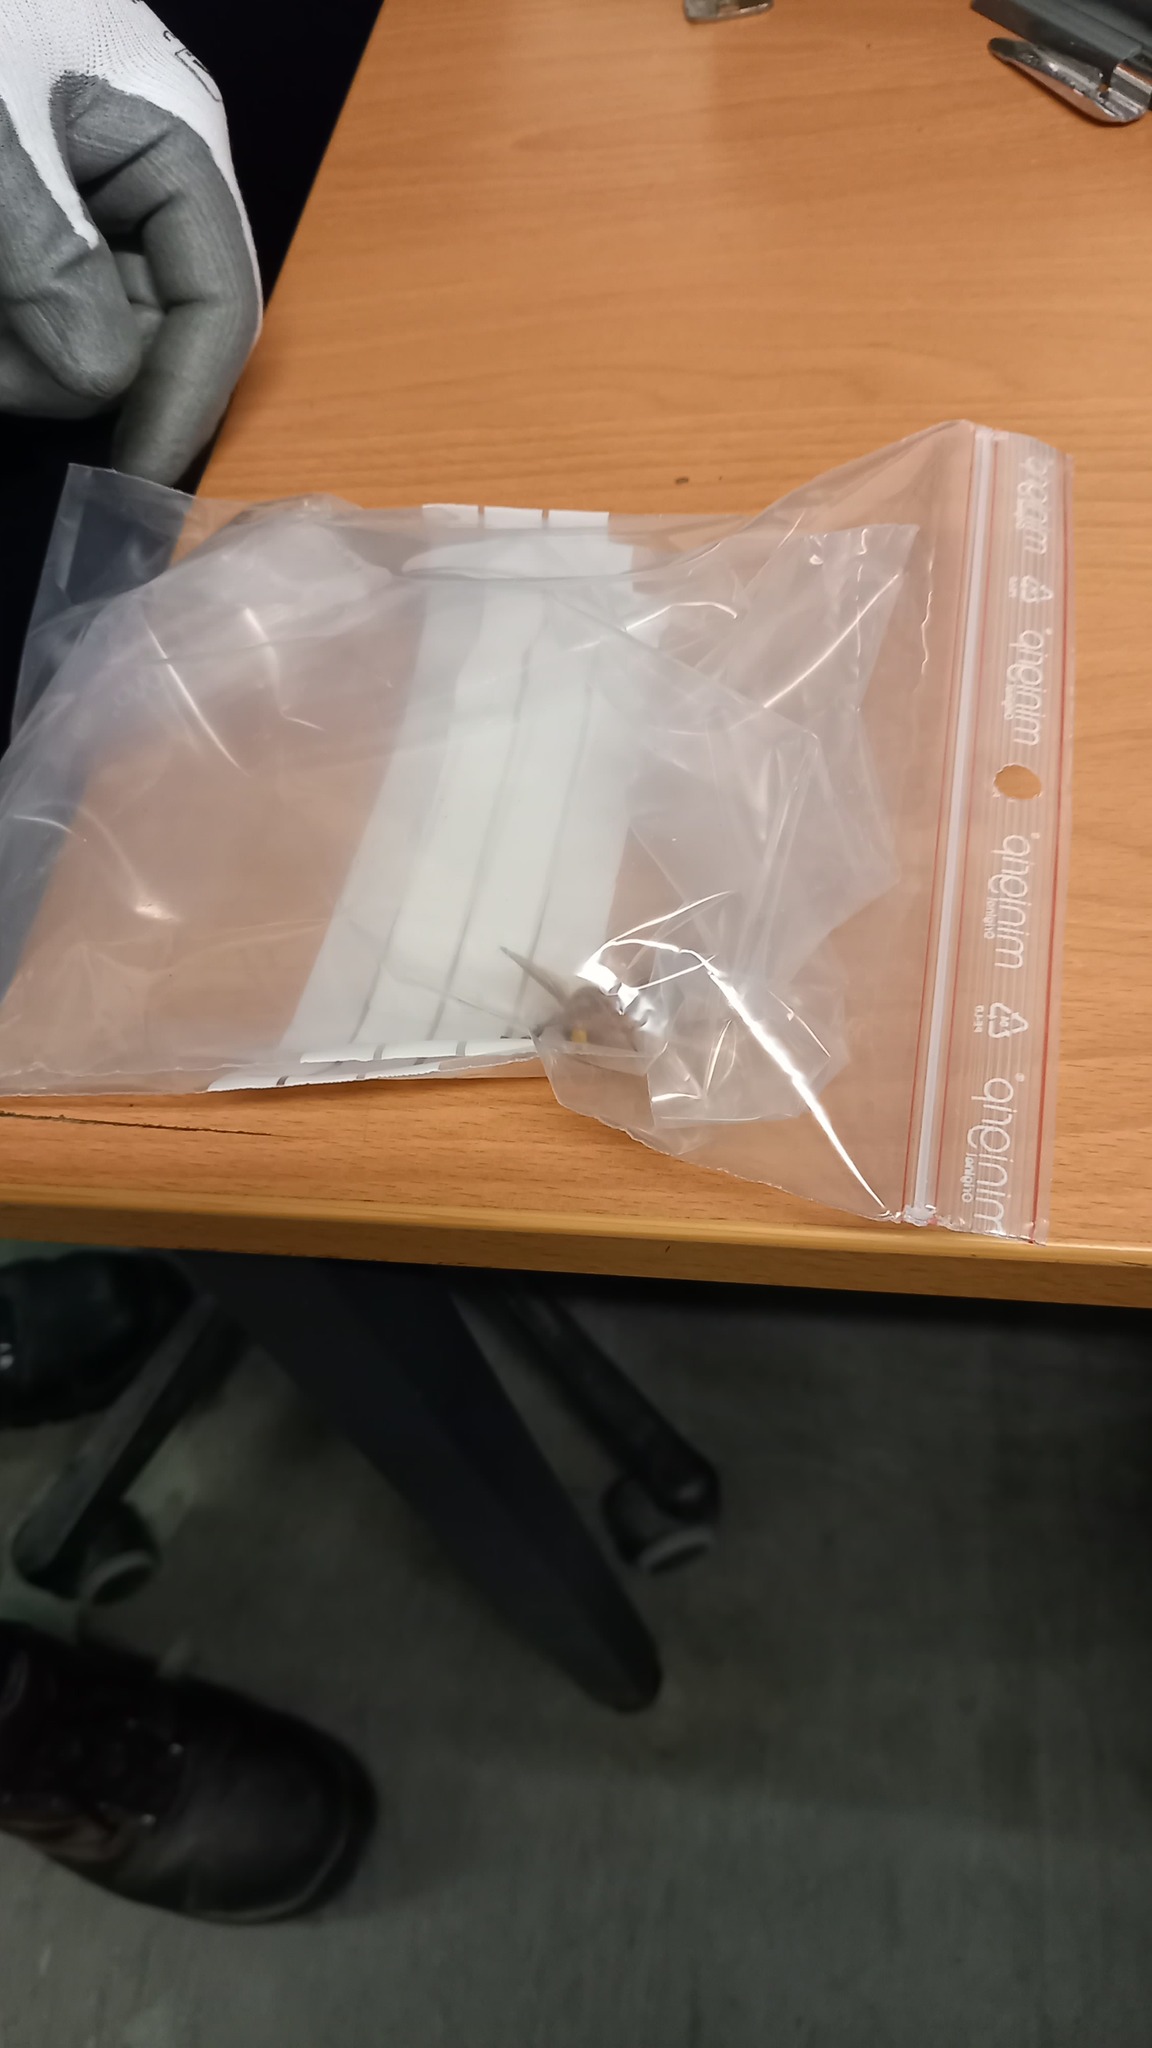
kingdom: Animalia
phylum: Arthropoda
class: Insecta
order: Hymenoptera
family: Vespidae
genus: Vespa
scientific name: Vespa crabro
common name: Hornet
